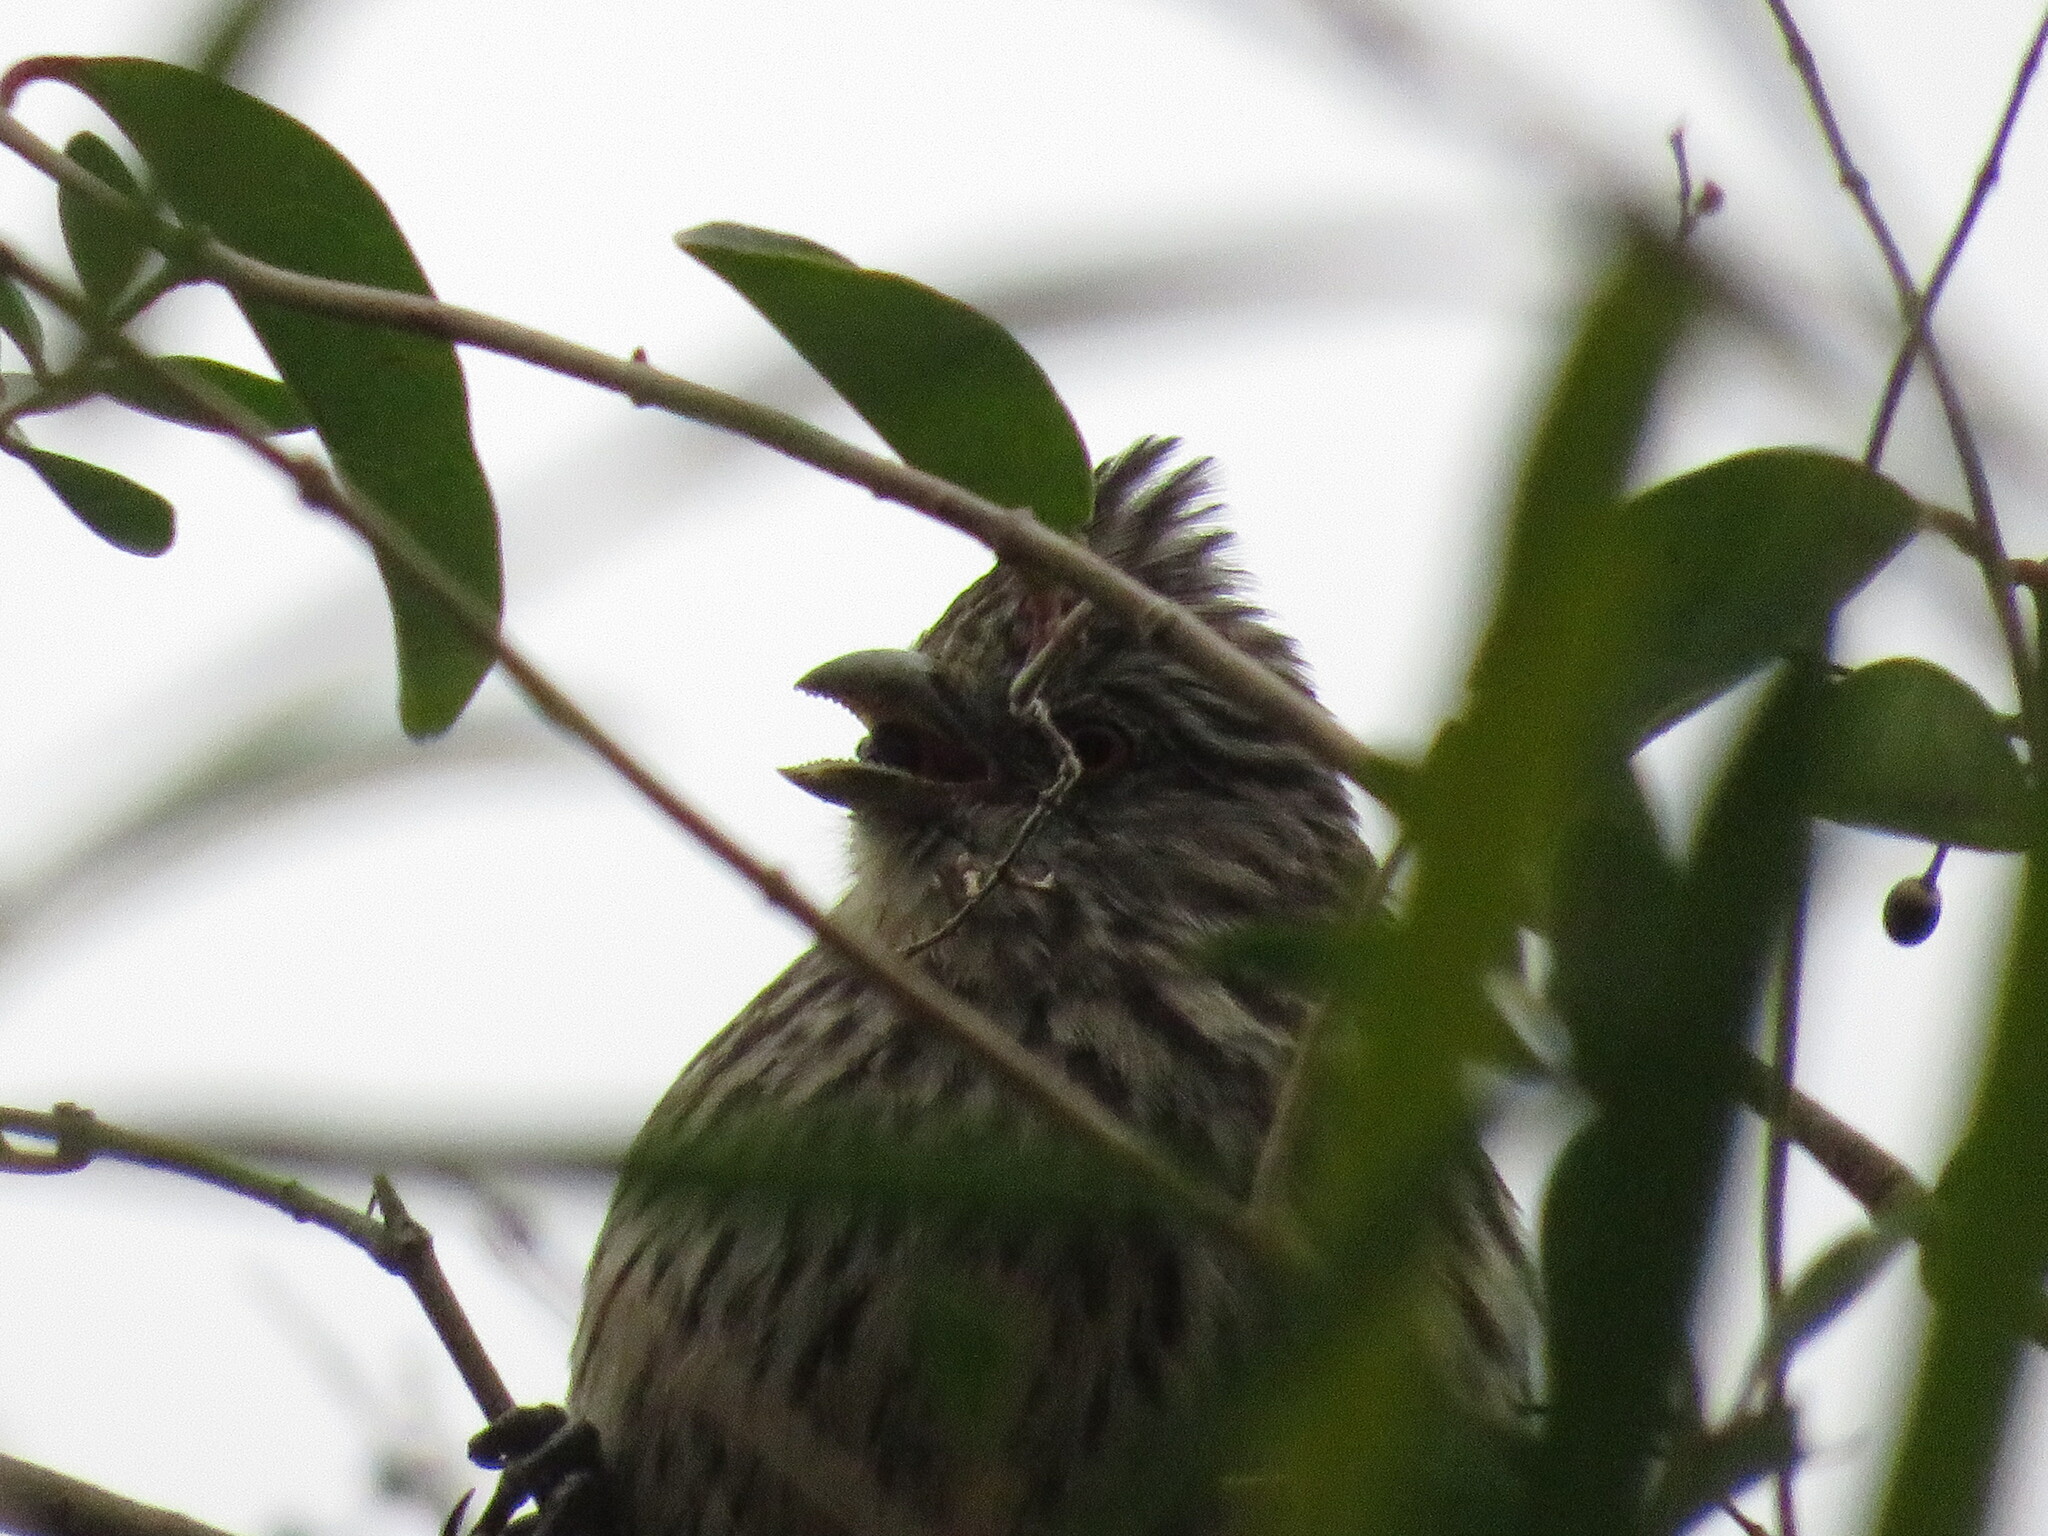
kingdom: Animalia
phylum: Chordata
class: Aves
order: Passeriformes
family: Cotingidae
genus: Phytotoma
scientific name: Phytotoma rutila
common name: White-tipped plantcutter
